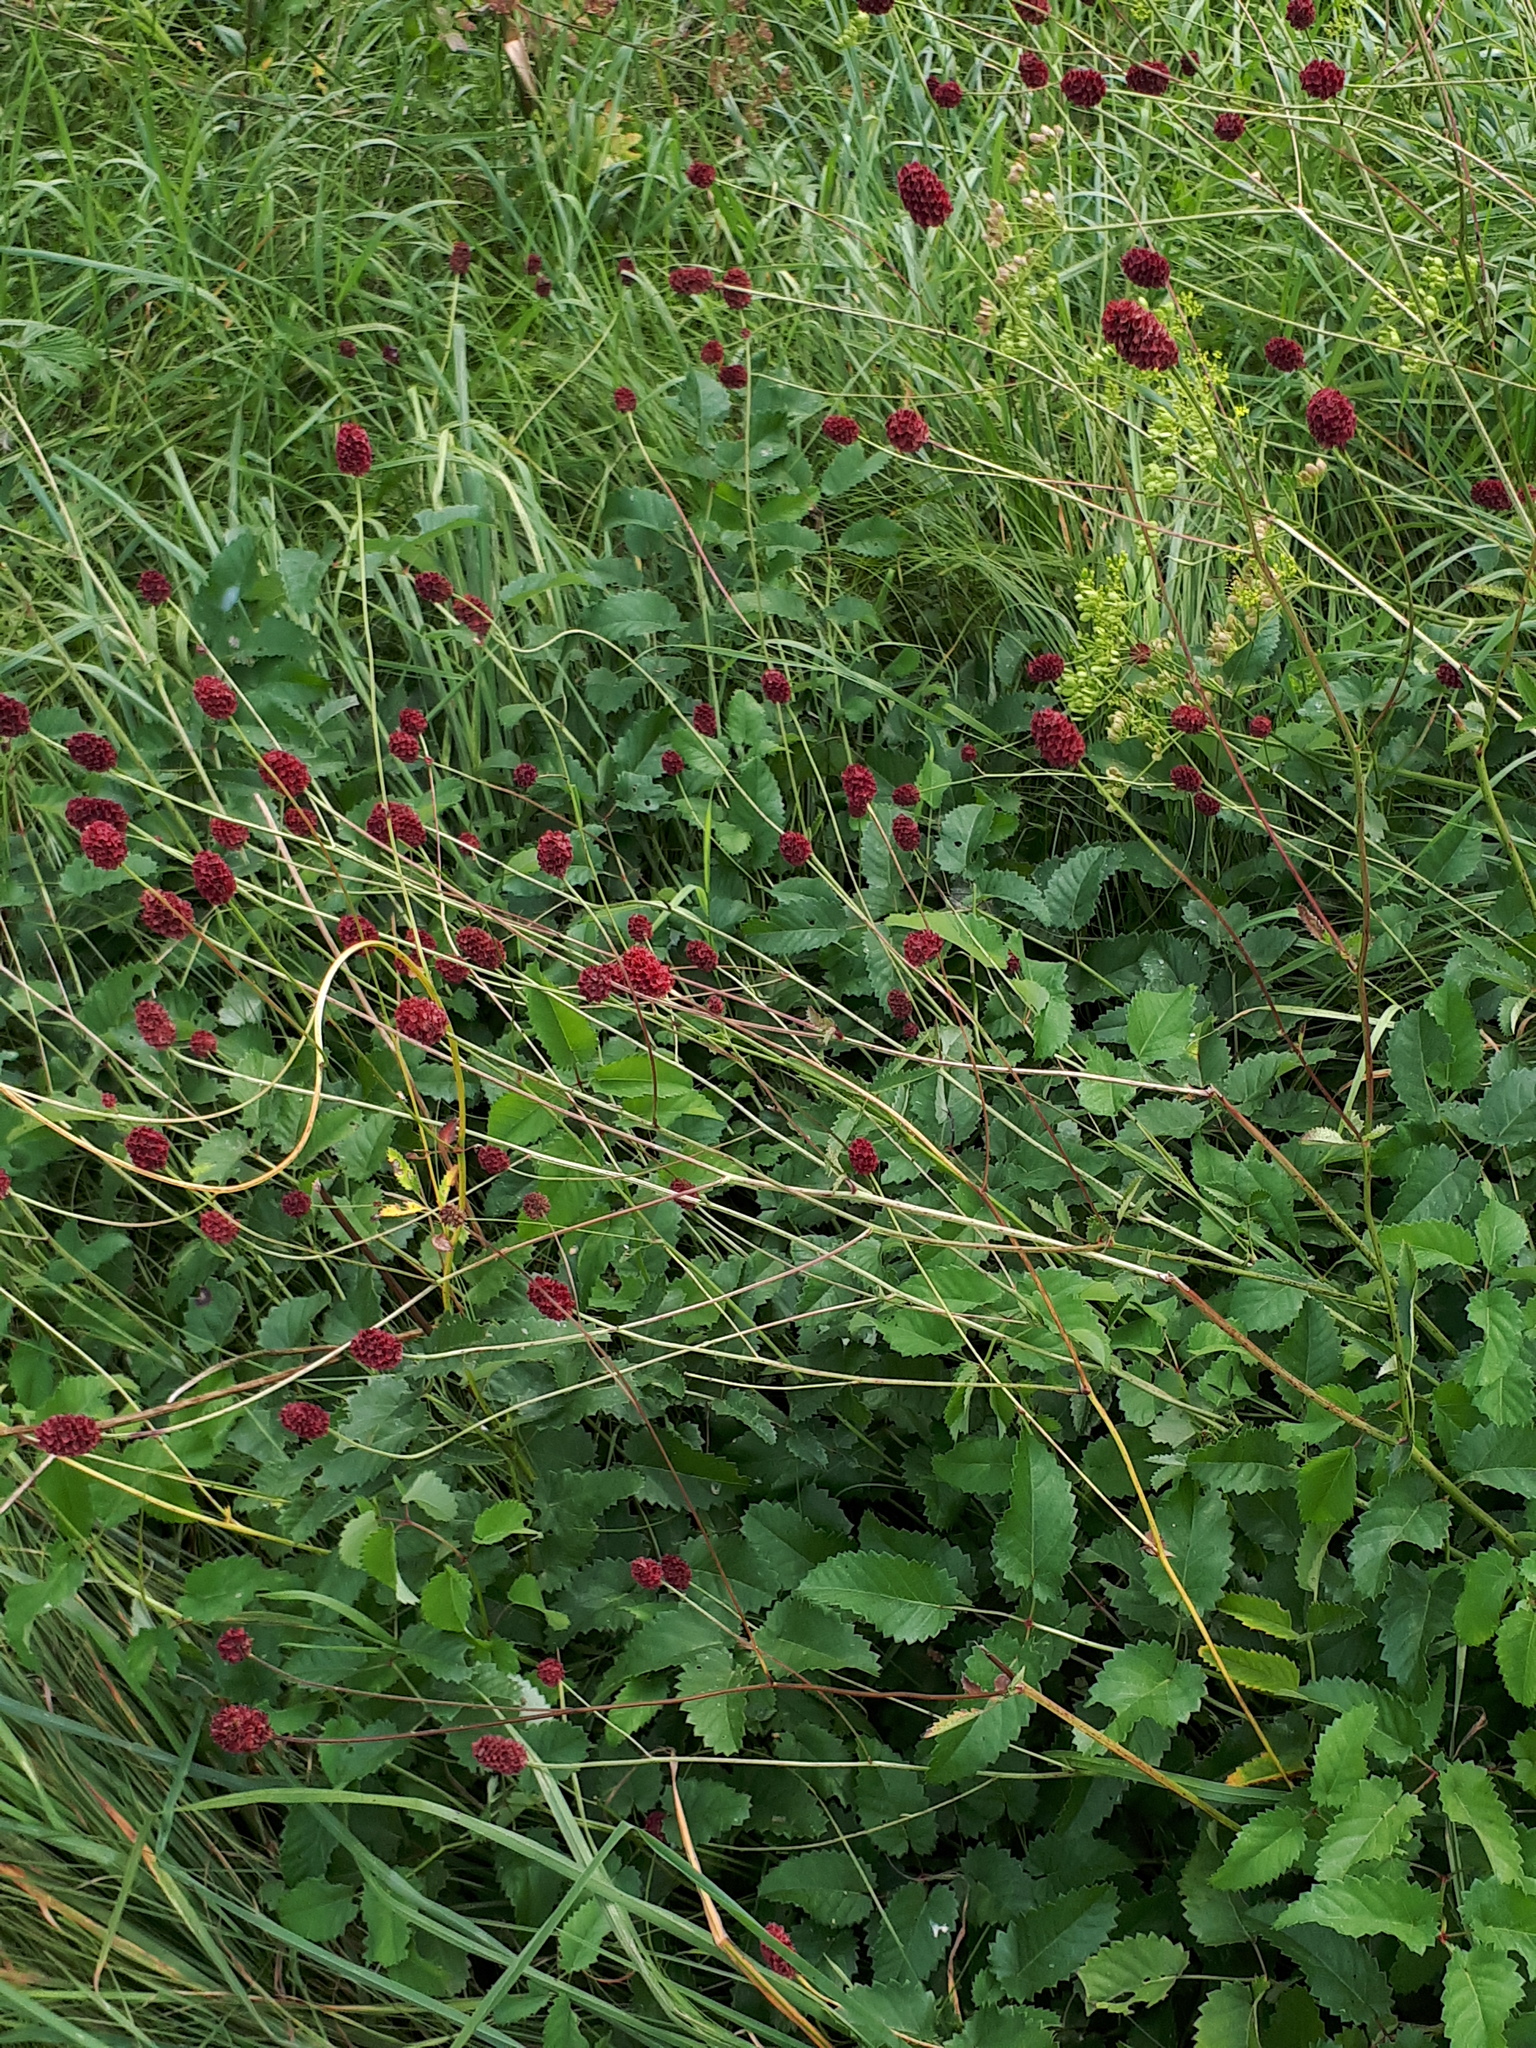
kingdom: Plantae
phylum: Tracheophyta
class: Magnoliopsida
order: Rosales
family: Rosaceae
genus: Sanguisorba
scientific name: Sanguisorba officinalis
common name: Great burnet
